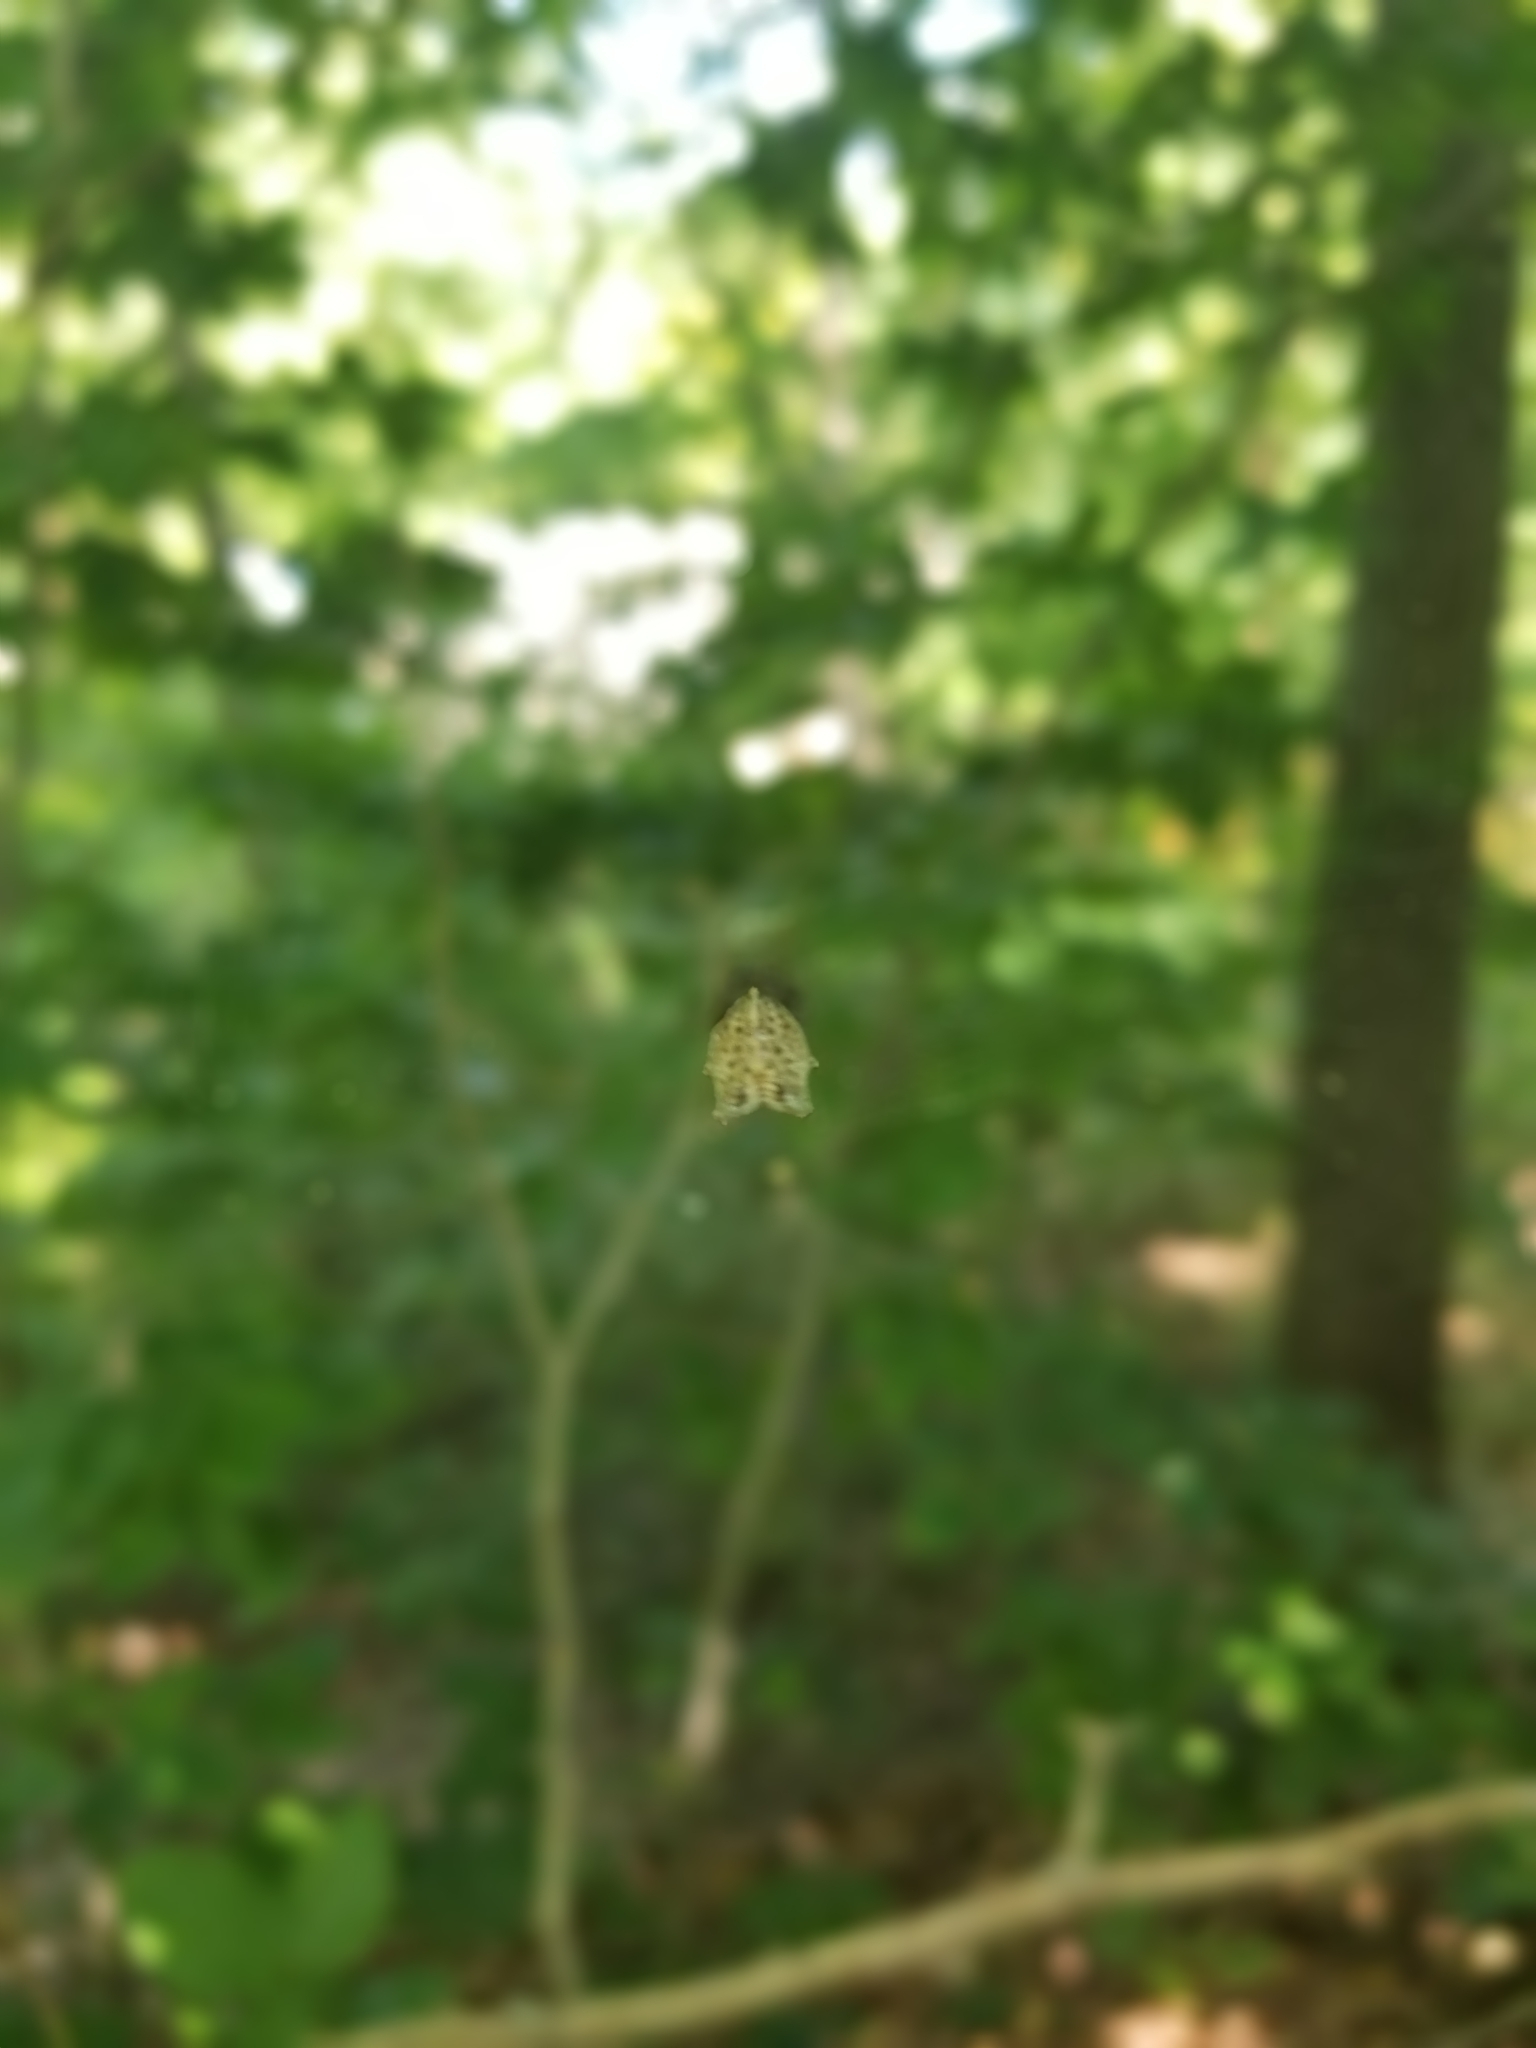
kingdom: Animalia
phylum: Arthropoda
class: Arachnida
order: Araneae
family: Araneidae
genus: Micrathena
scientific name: Micrathena gracilis
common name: Orb weavers
